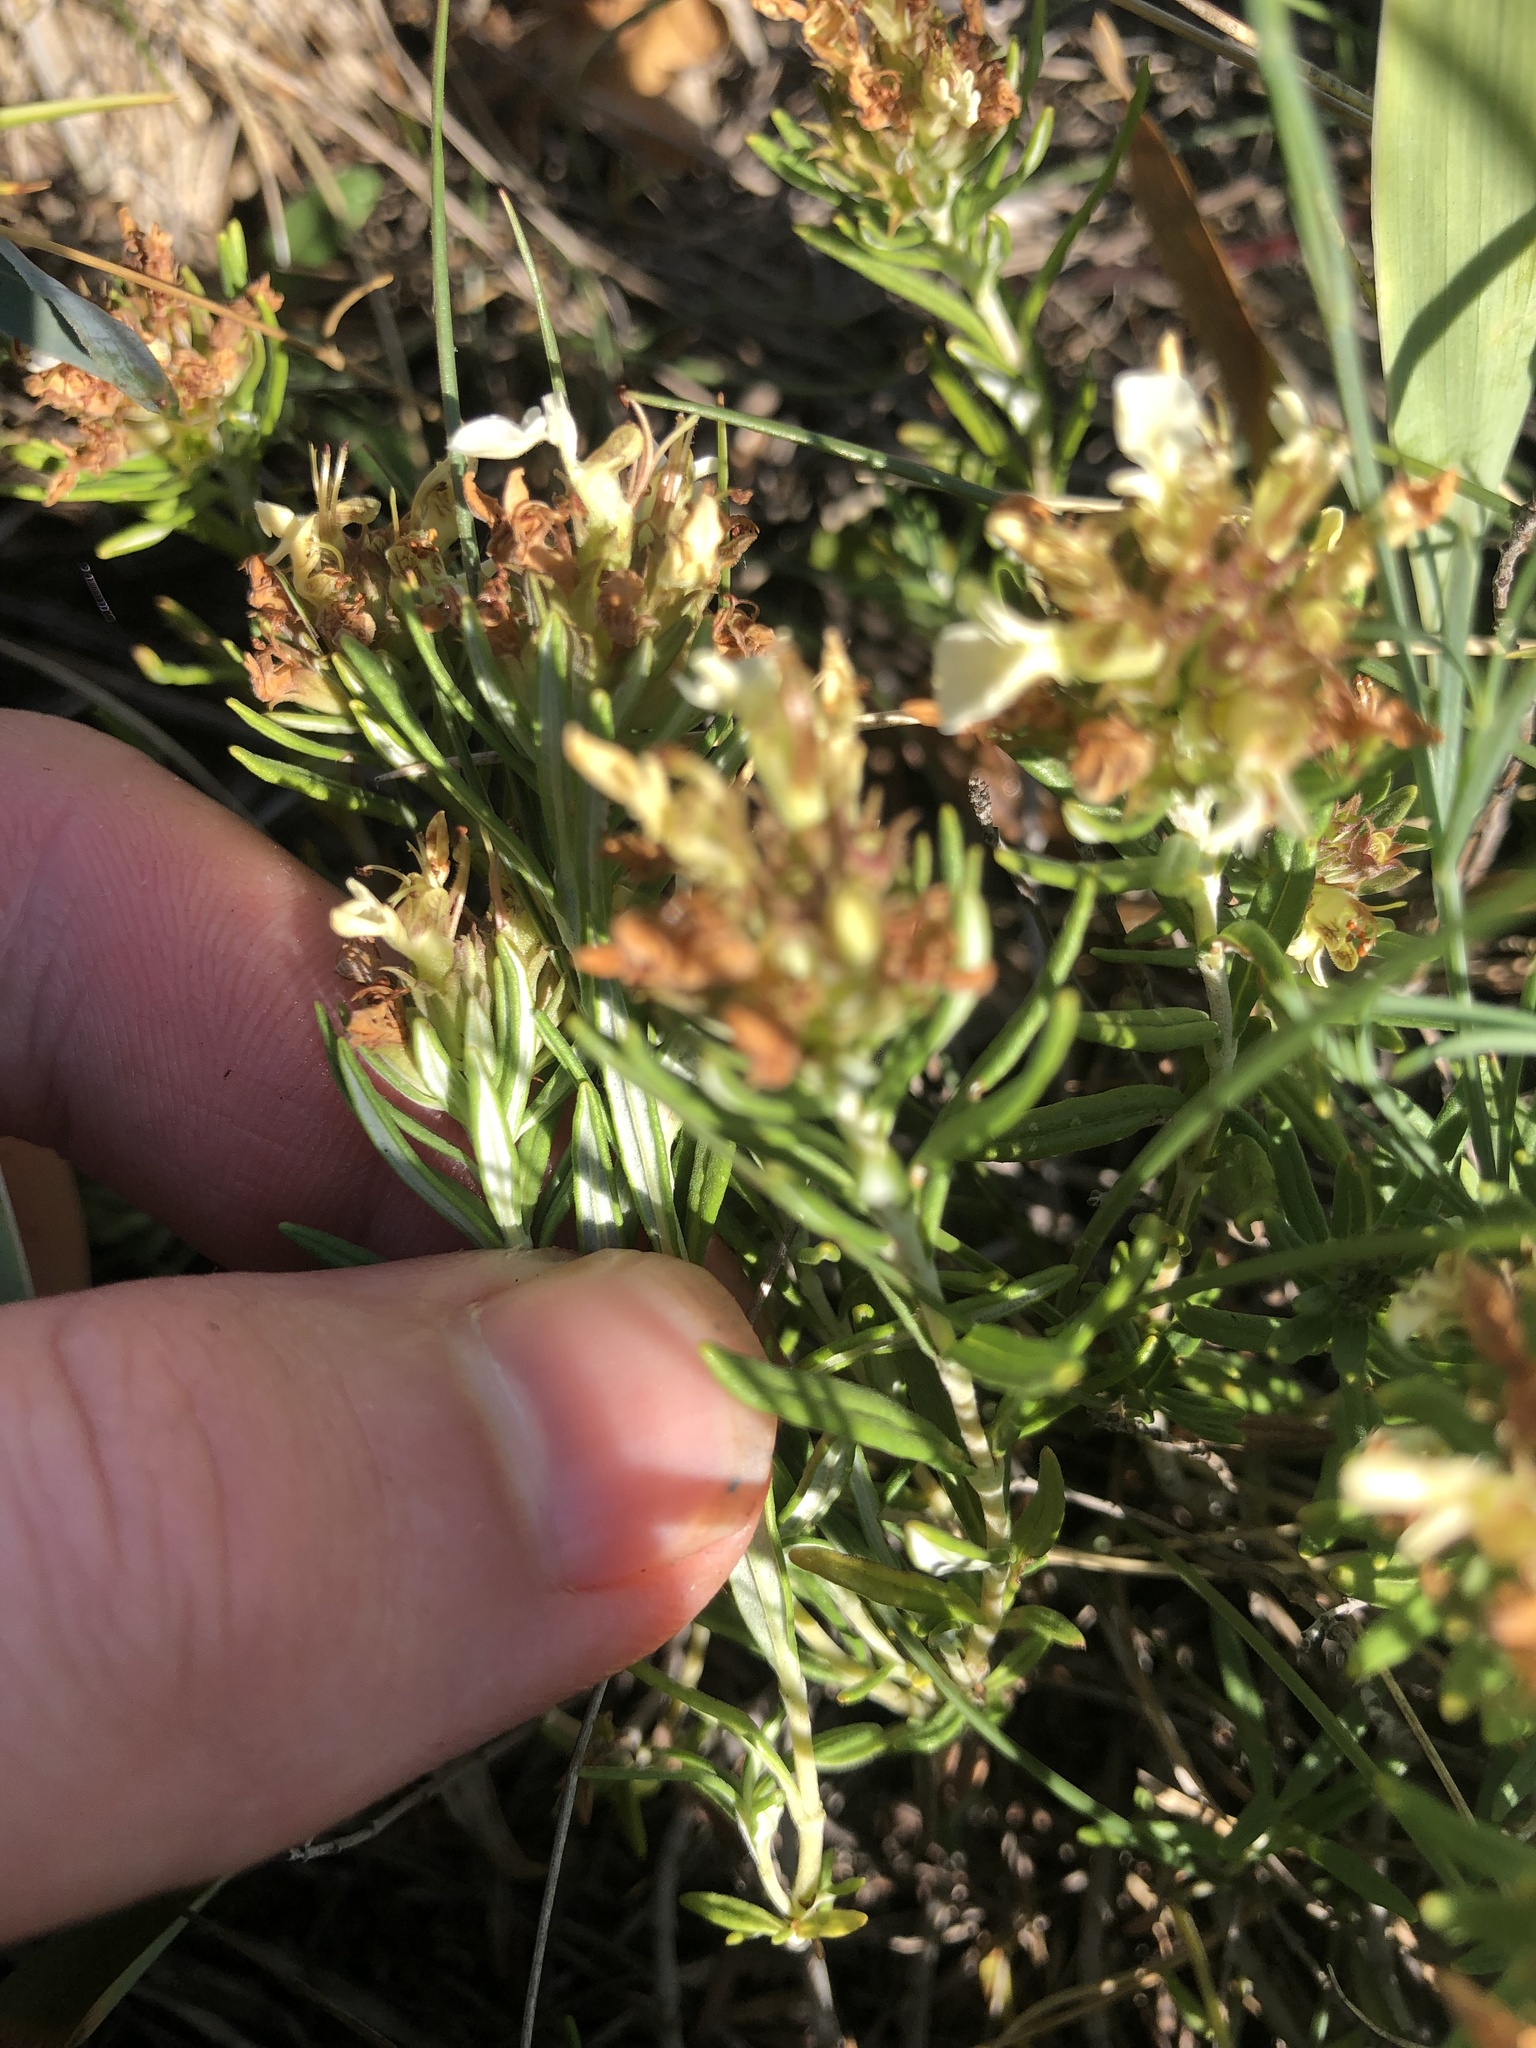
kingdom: Plantae
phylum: Tracheophyta
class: Magnoliopsida
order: Lamiales
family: Lamiaceae
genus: Teucrium
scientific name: Teucrium montanum
